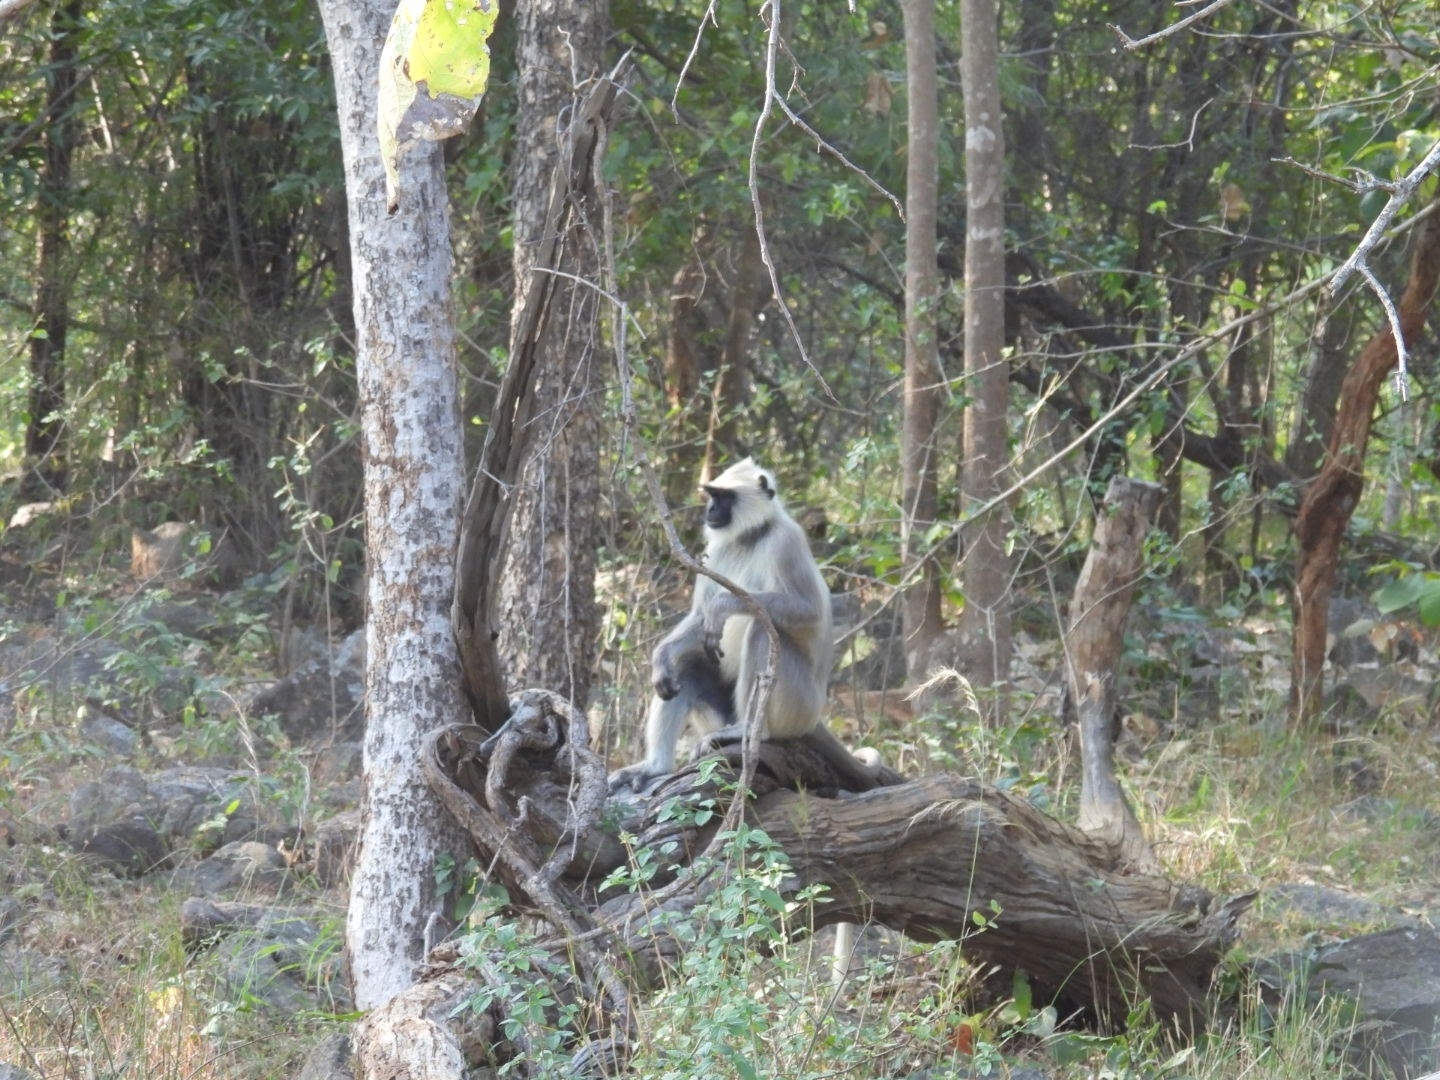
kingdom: Animalia
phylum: Chordata
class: Mammalia
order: Primates
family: Cercopithecidae
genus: Semnopithecus
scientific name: Semnopithecus entellus
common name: Northern plains gray langur
